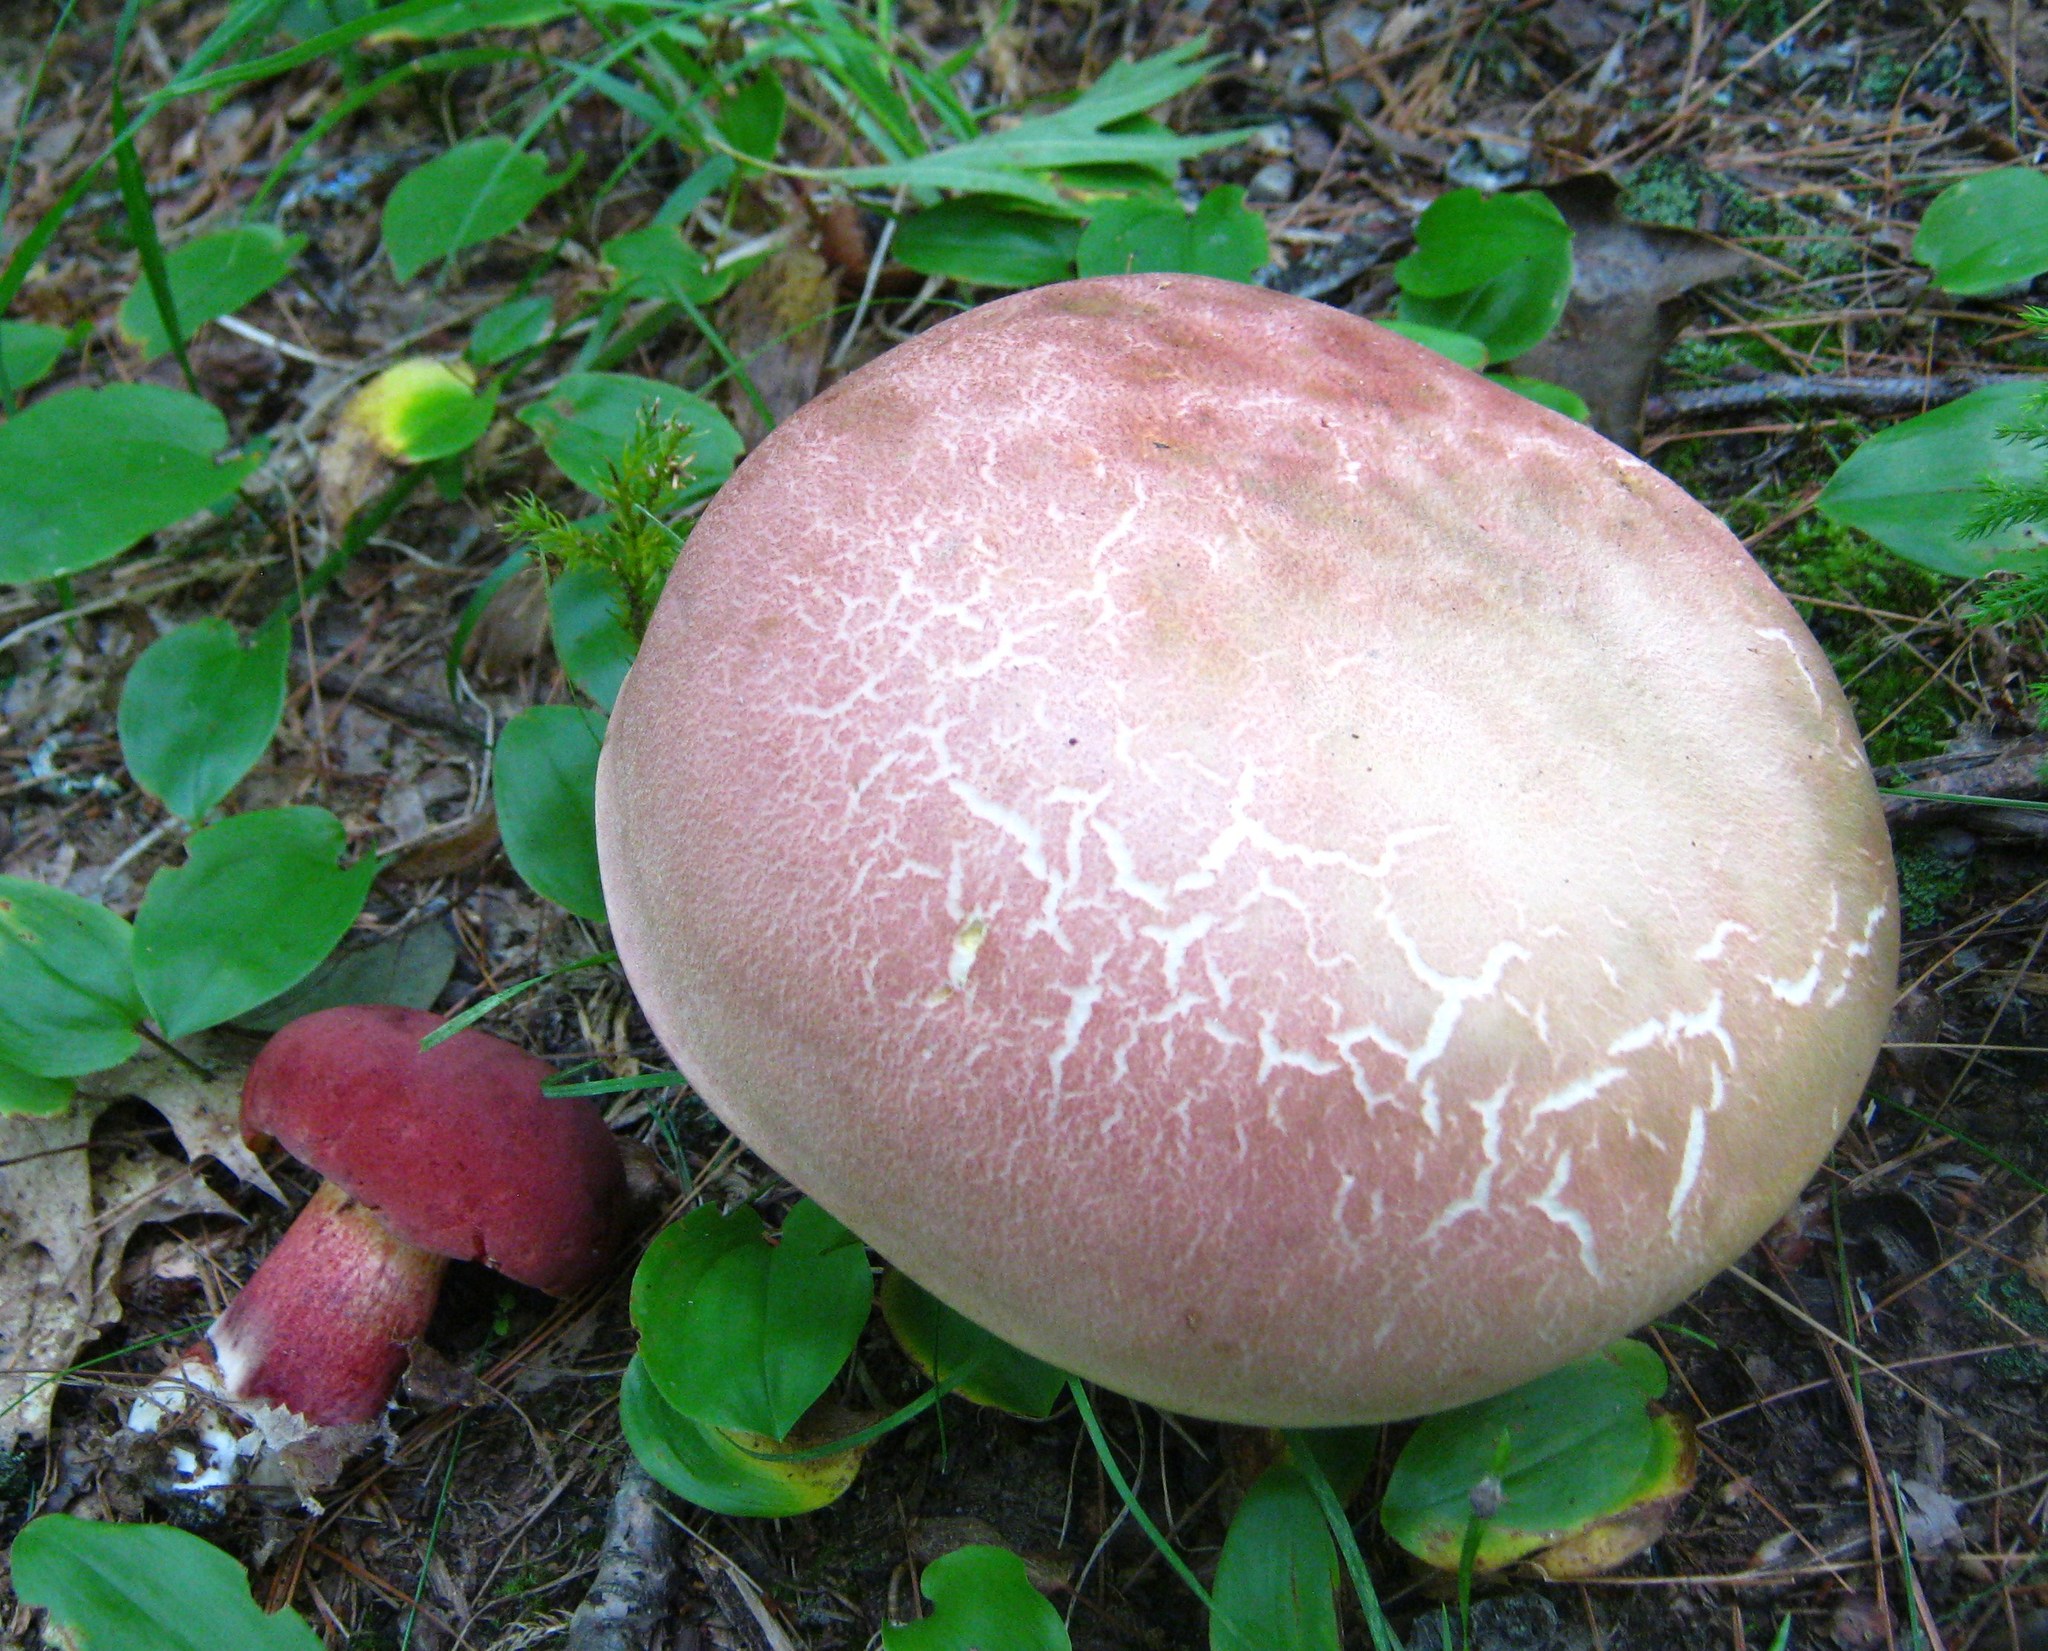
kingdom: Fungi
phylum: Basidiomycota
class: Agaricomycetes
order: Boletales
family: Boletaceae
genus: Baorangia
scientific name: Baorangia bicolor
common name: Two-colored bolete
